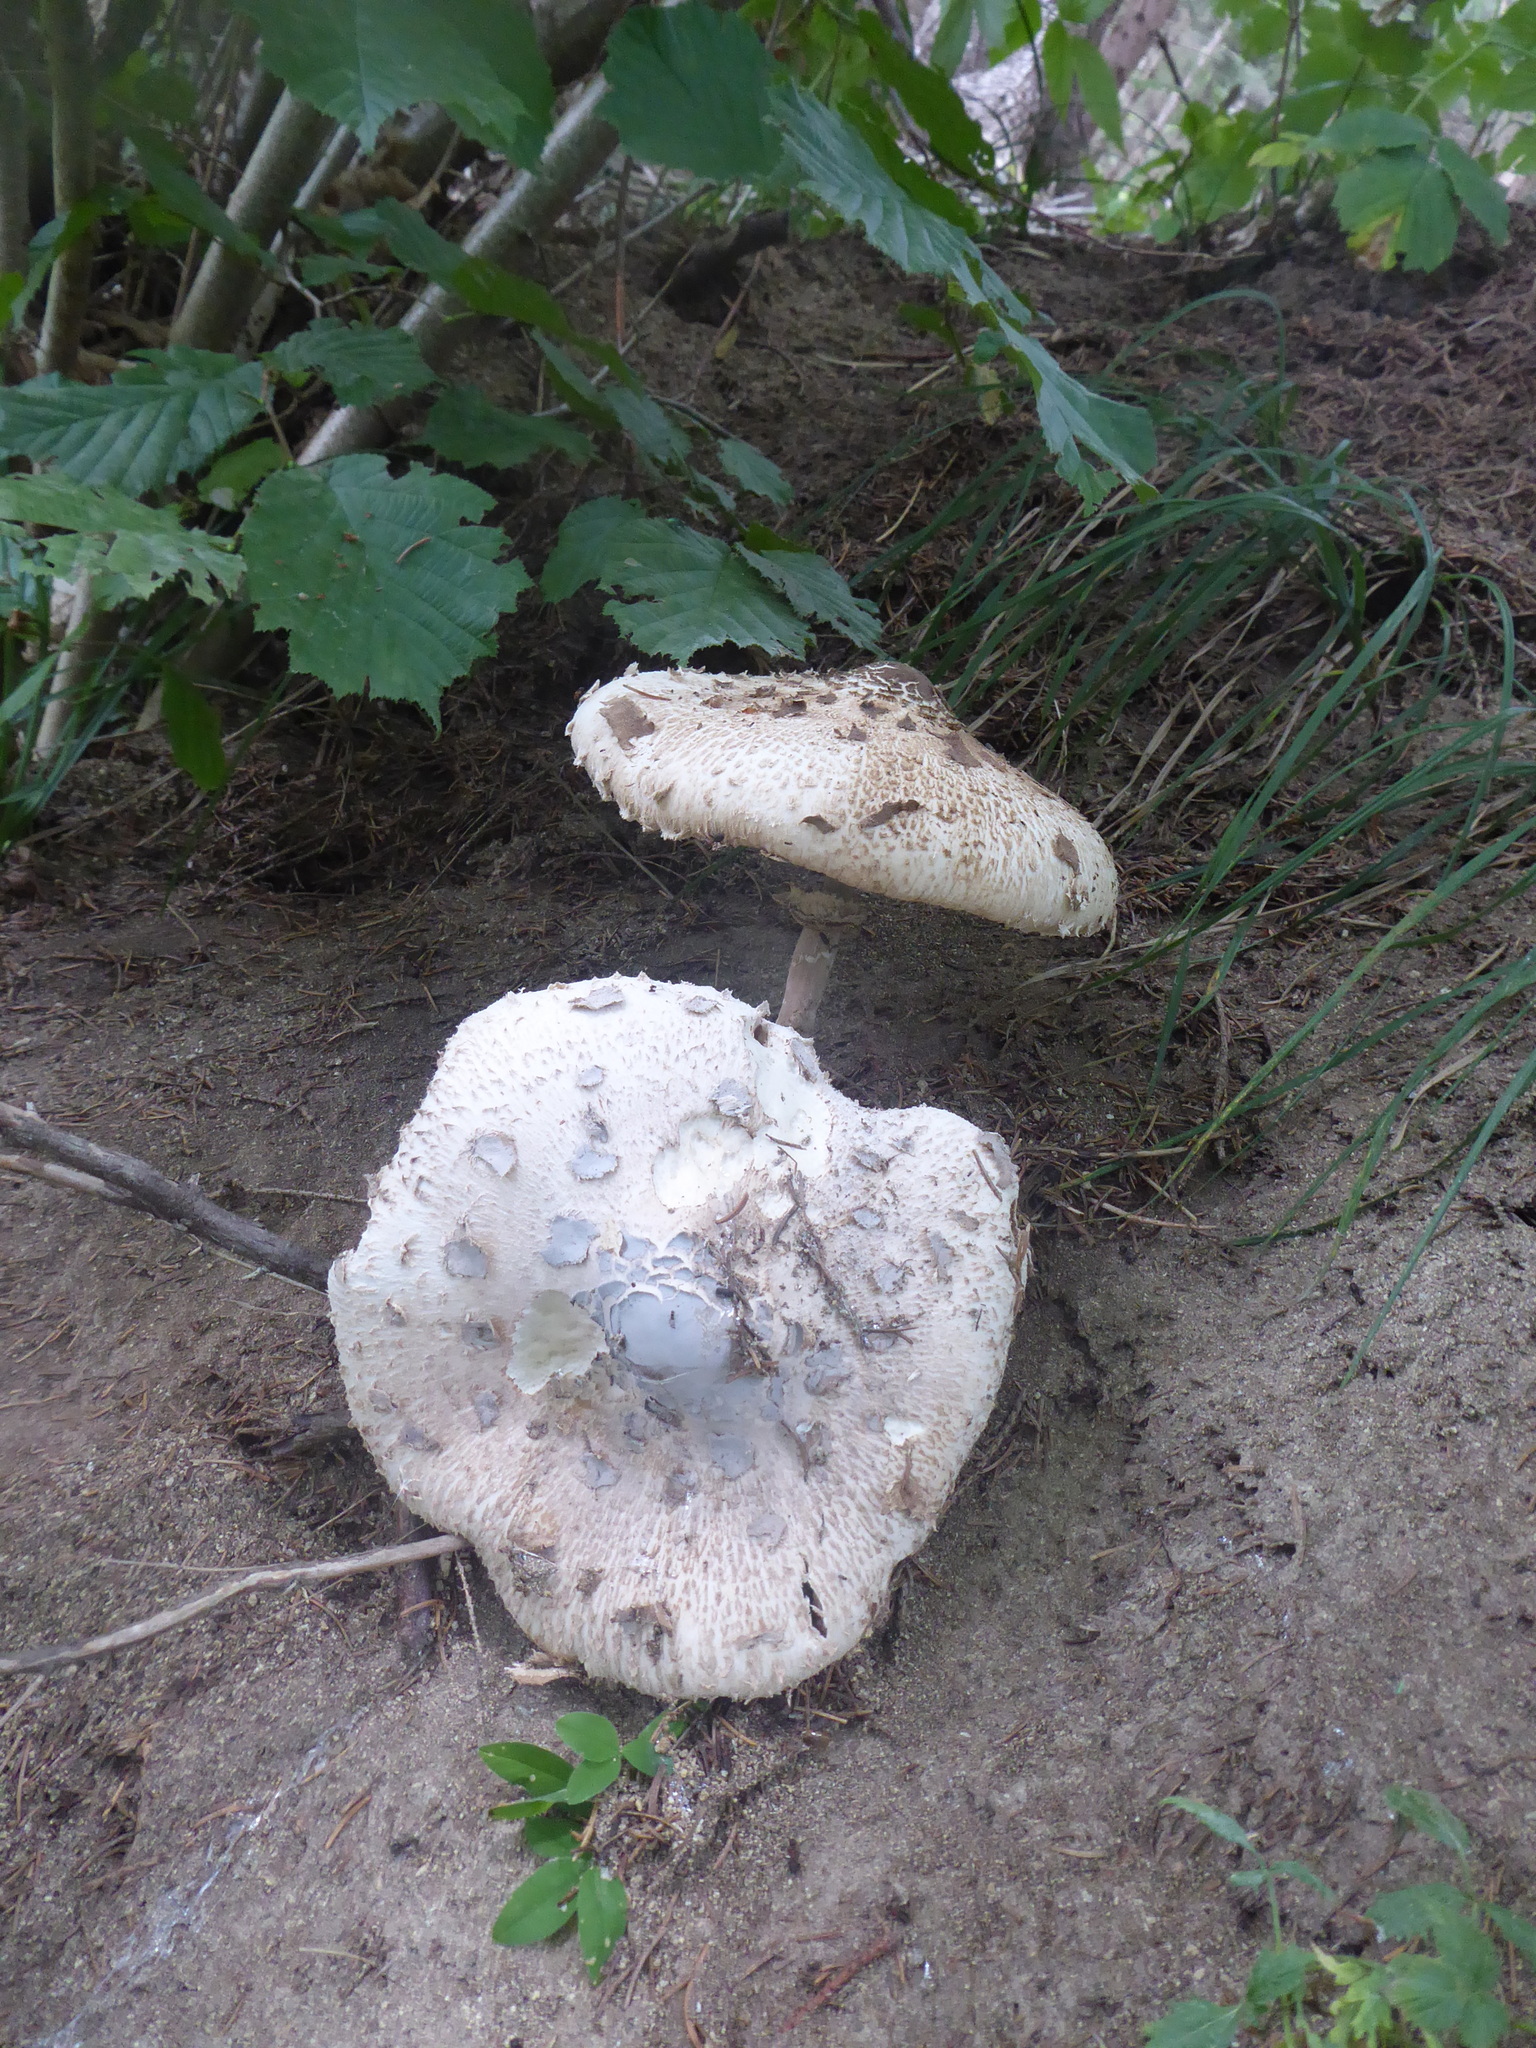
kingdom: Fungi
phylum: Basidiomycota
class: Agaricomycetes
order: Agaricales
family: Agaricaceae
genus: Macrolepiota
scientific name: Macrolepiota procera
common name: Parasol
